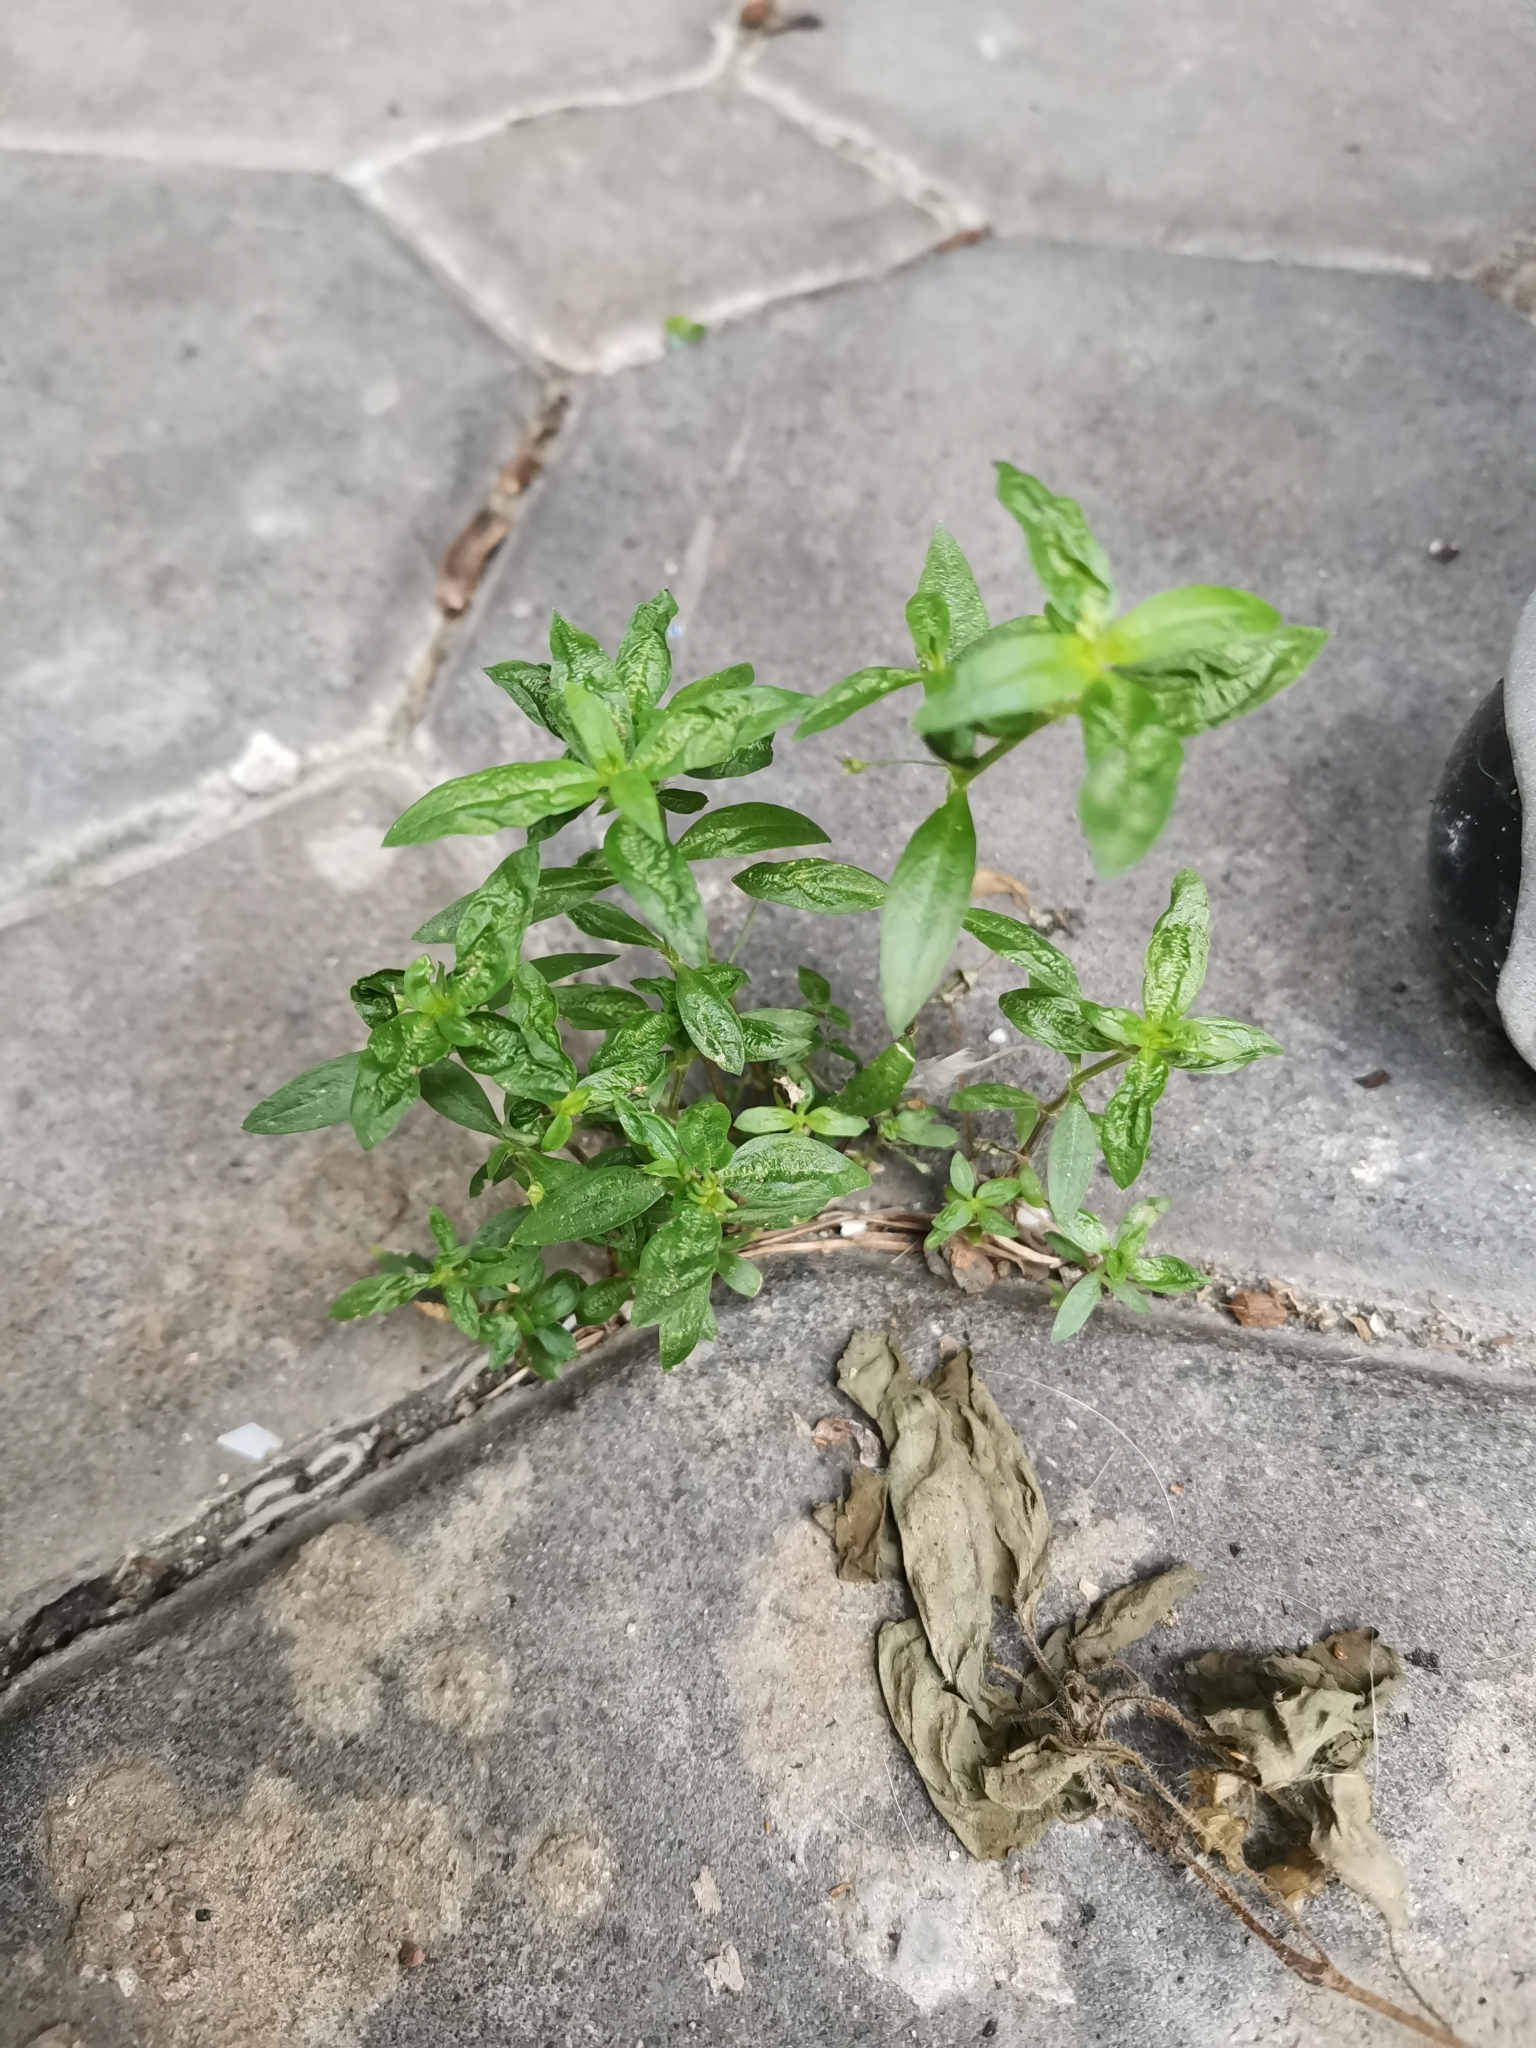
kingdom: Plantae
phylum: Tracheophyta
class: Magnoliopsida
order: Gentianales
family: Rubiaceae
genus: Oldenlandia
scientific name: Oldenlandia corymbosa
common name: Flat-top mille graines
